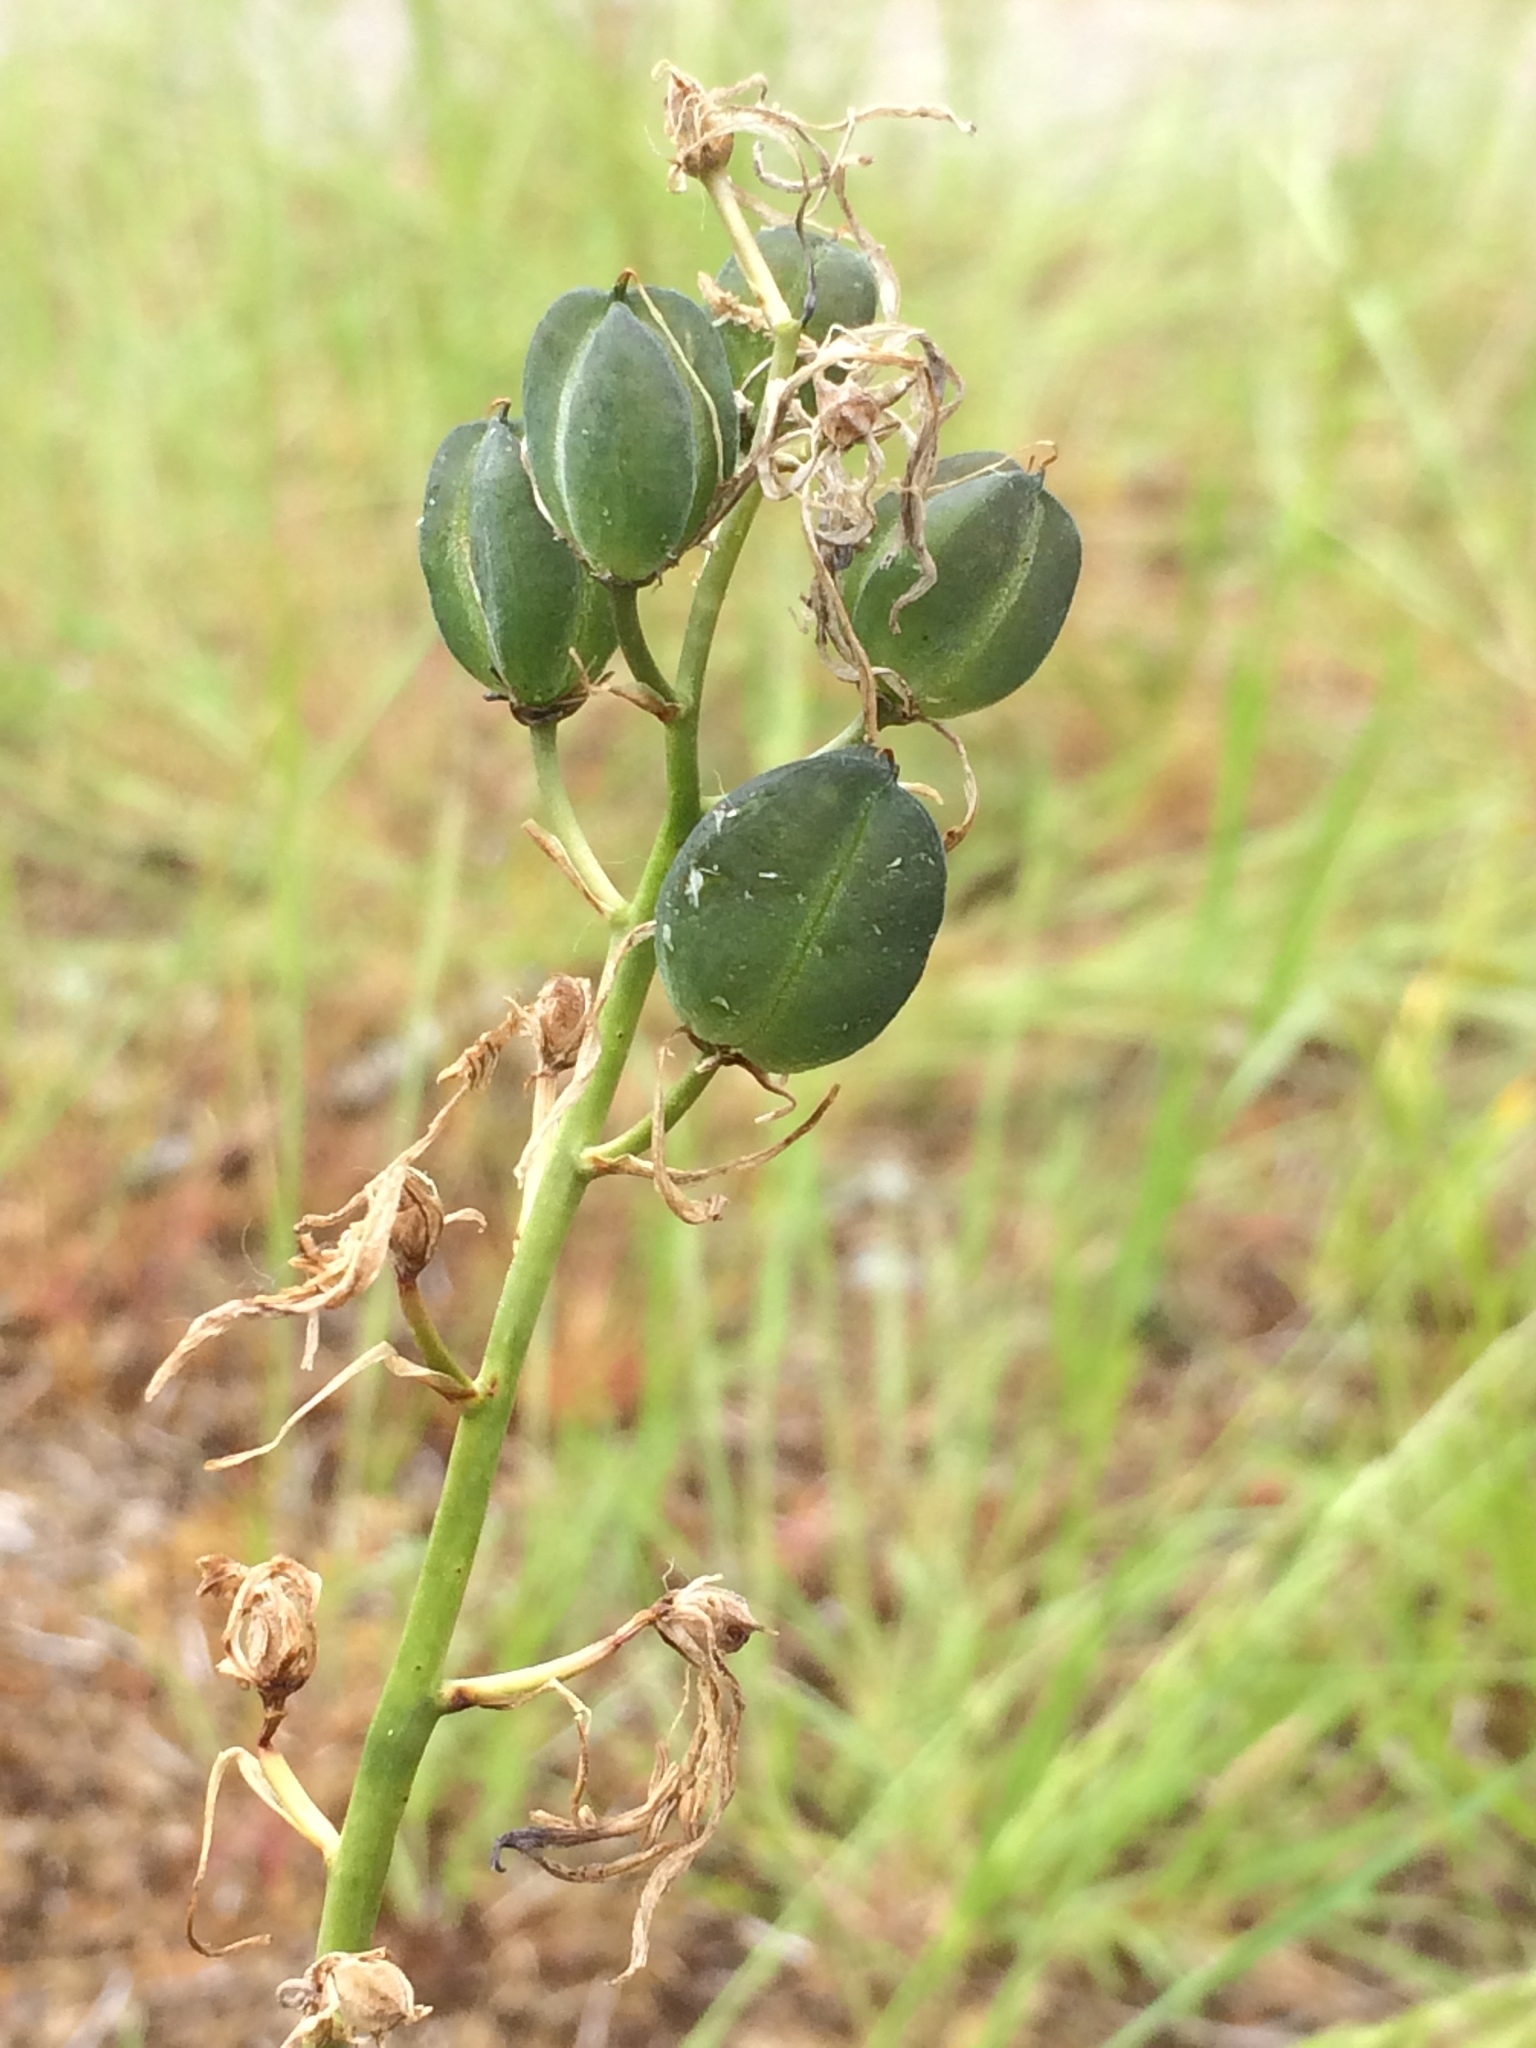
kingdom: Plantae
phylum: Tracheophyta
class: Liliopsida
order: Asparagales
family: Asparagaceae
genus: Camassia
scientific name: Camassia quamash
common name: Common camas
